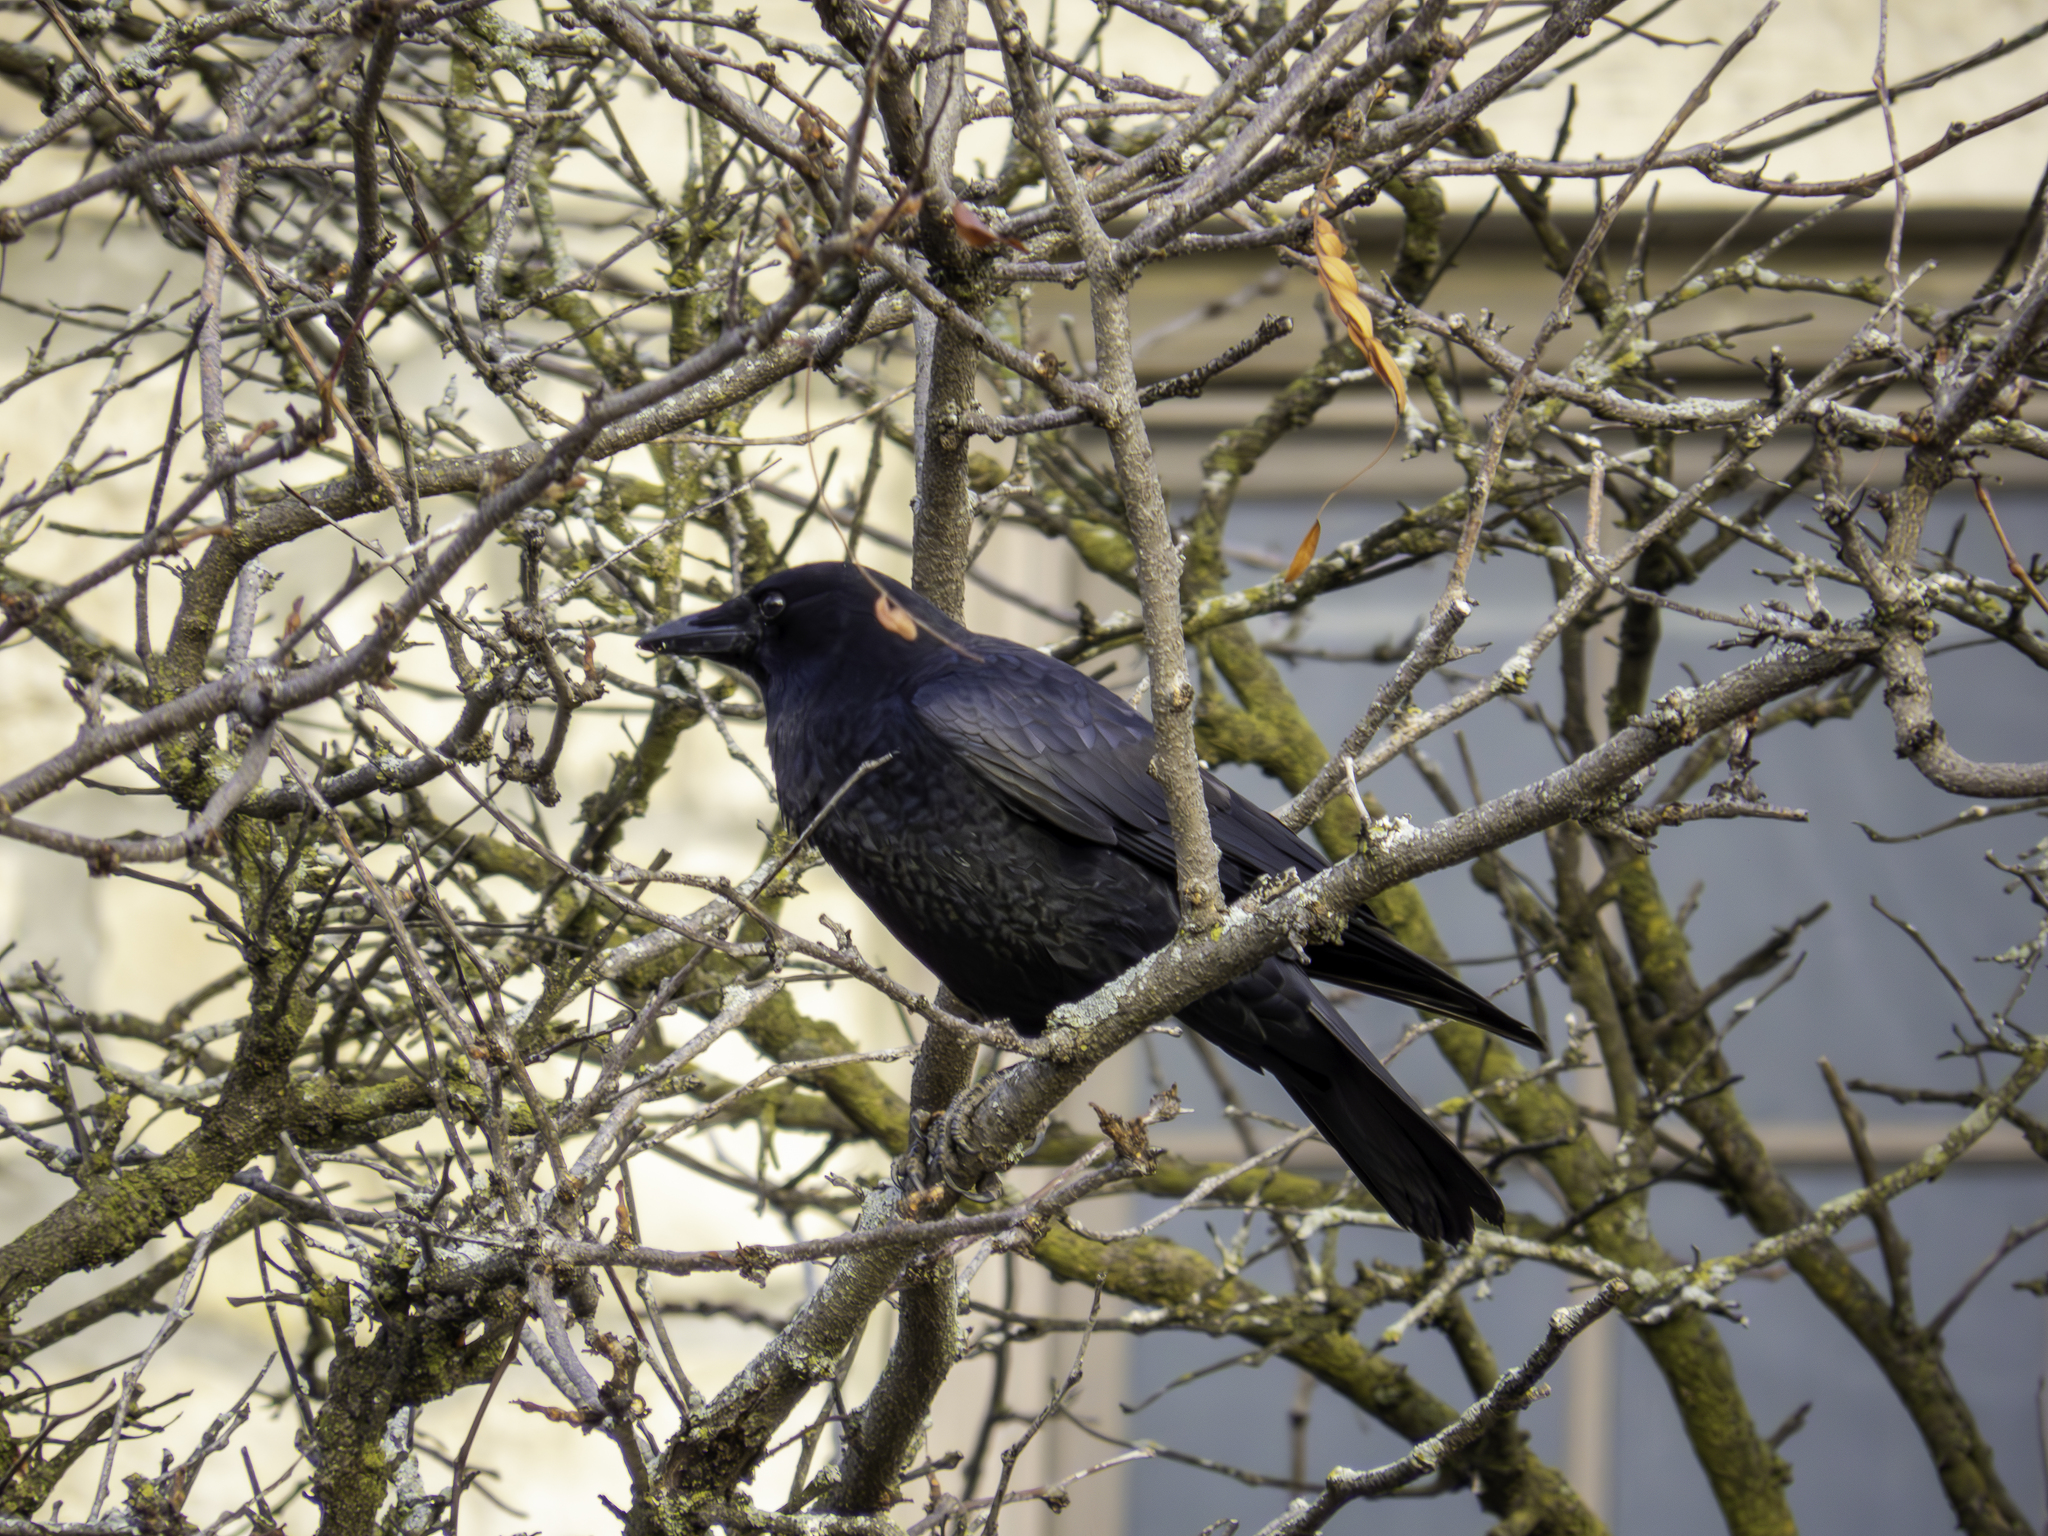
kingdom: Animalia
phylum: Chordata
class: Aves
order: Passeriformes
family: Corvidae
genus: Corvus
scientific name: Corvus brachyrhynchos
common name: American crow
